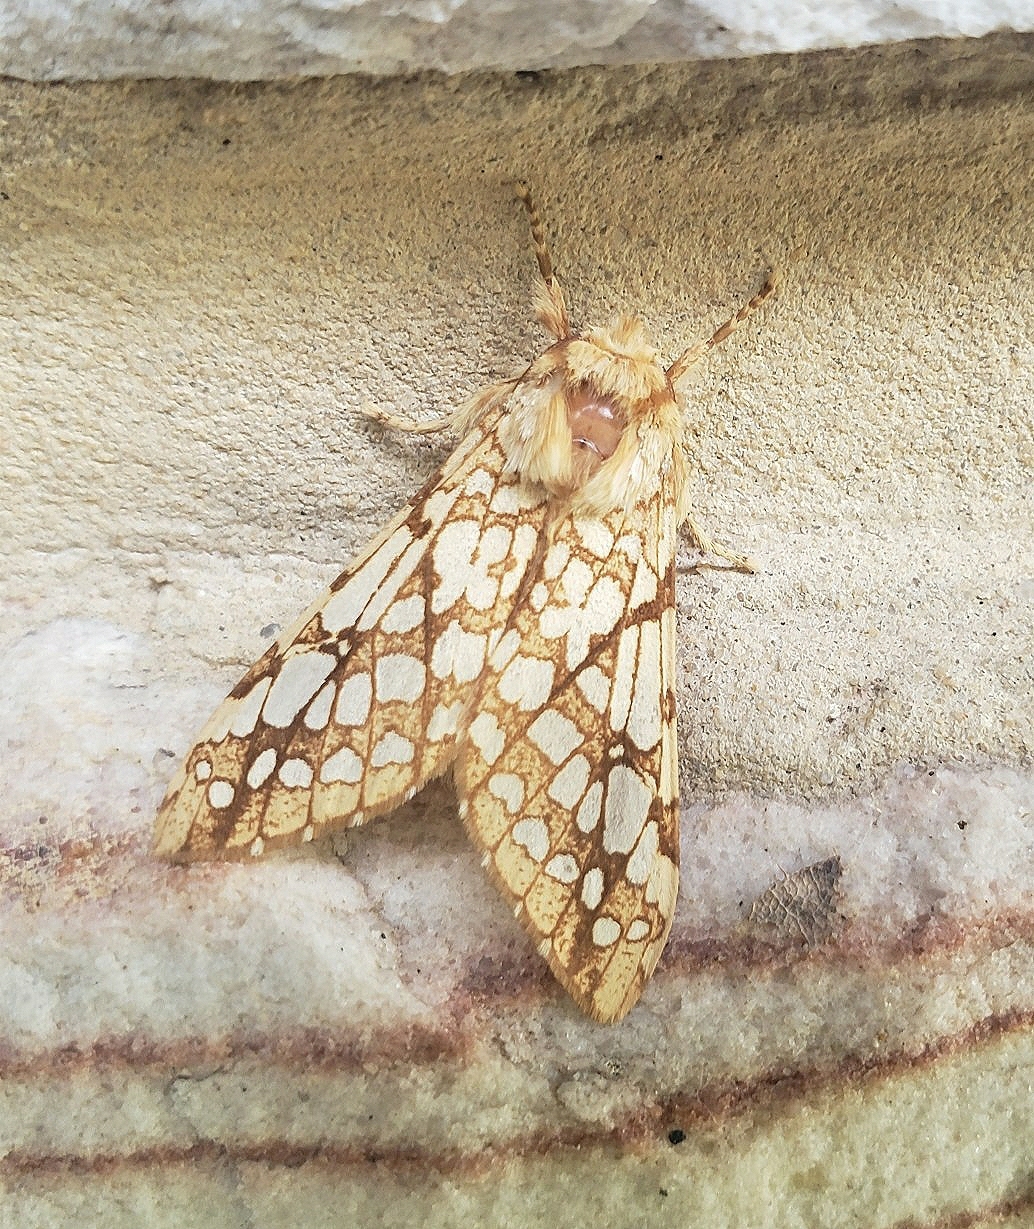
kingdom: Animalia
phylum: Arthropoda
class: Insecta
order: Lepidoptera
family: Erebidae
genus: Lophocampa
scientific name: Lophocampa caryae
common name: Hickory tussock moth
